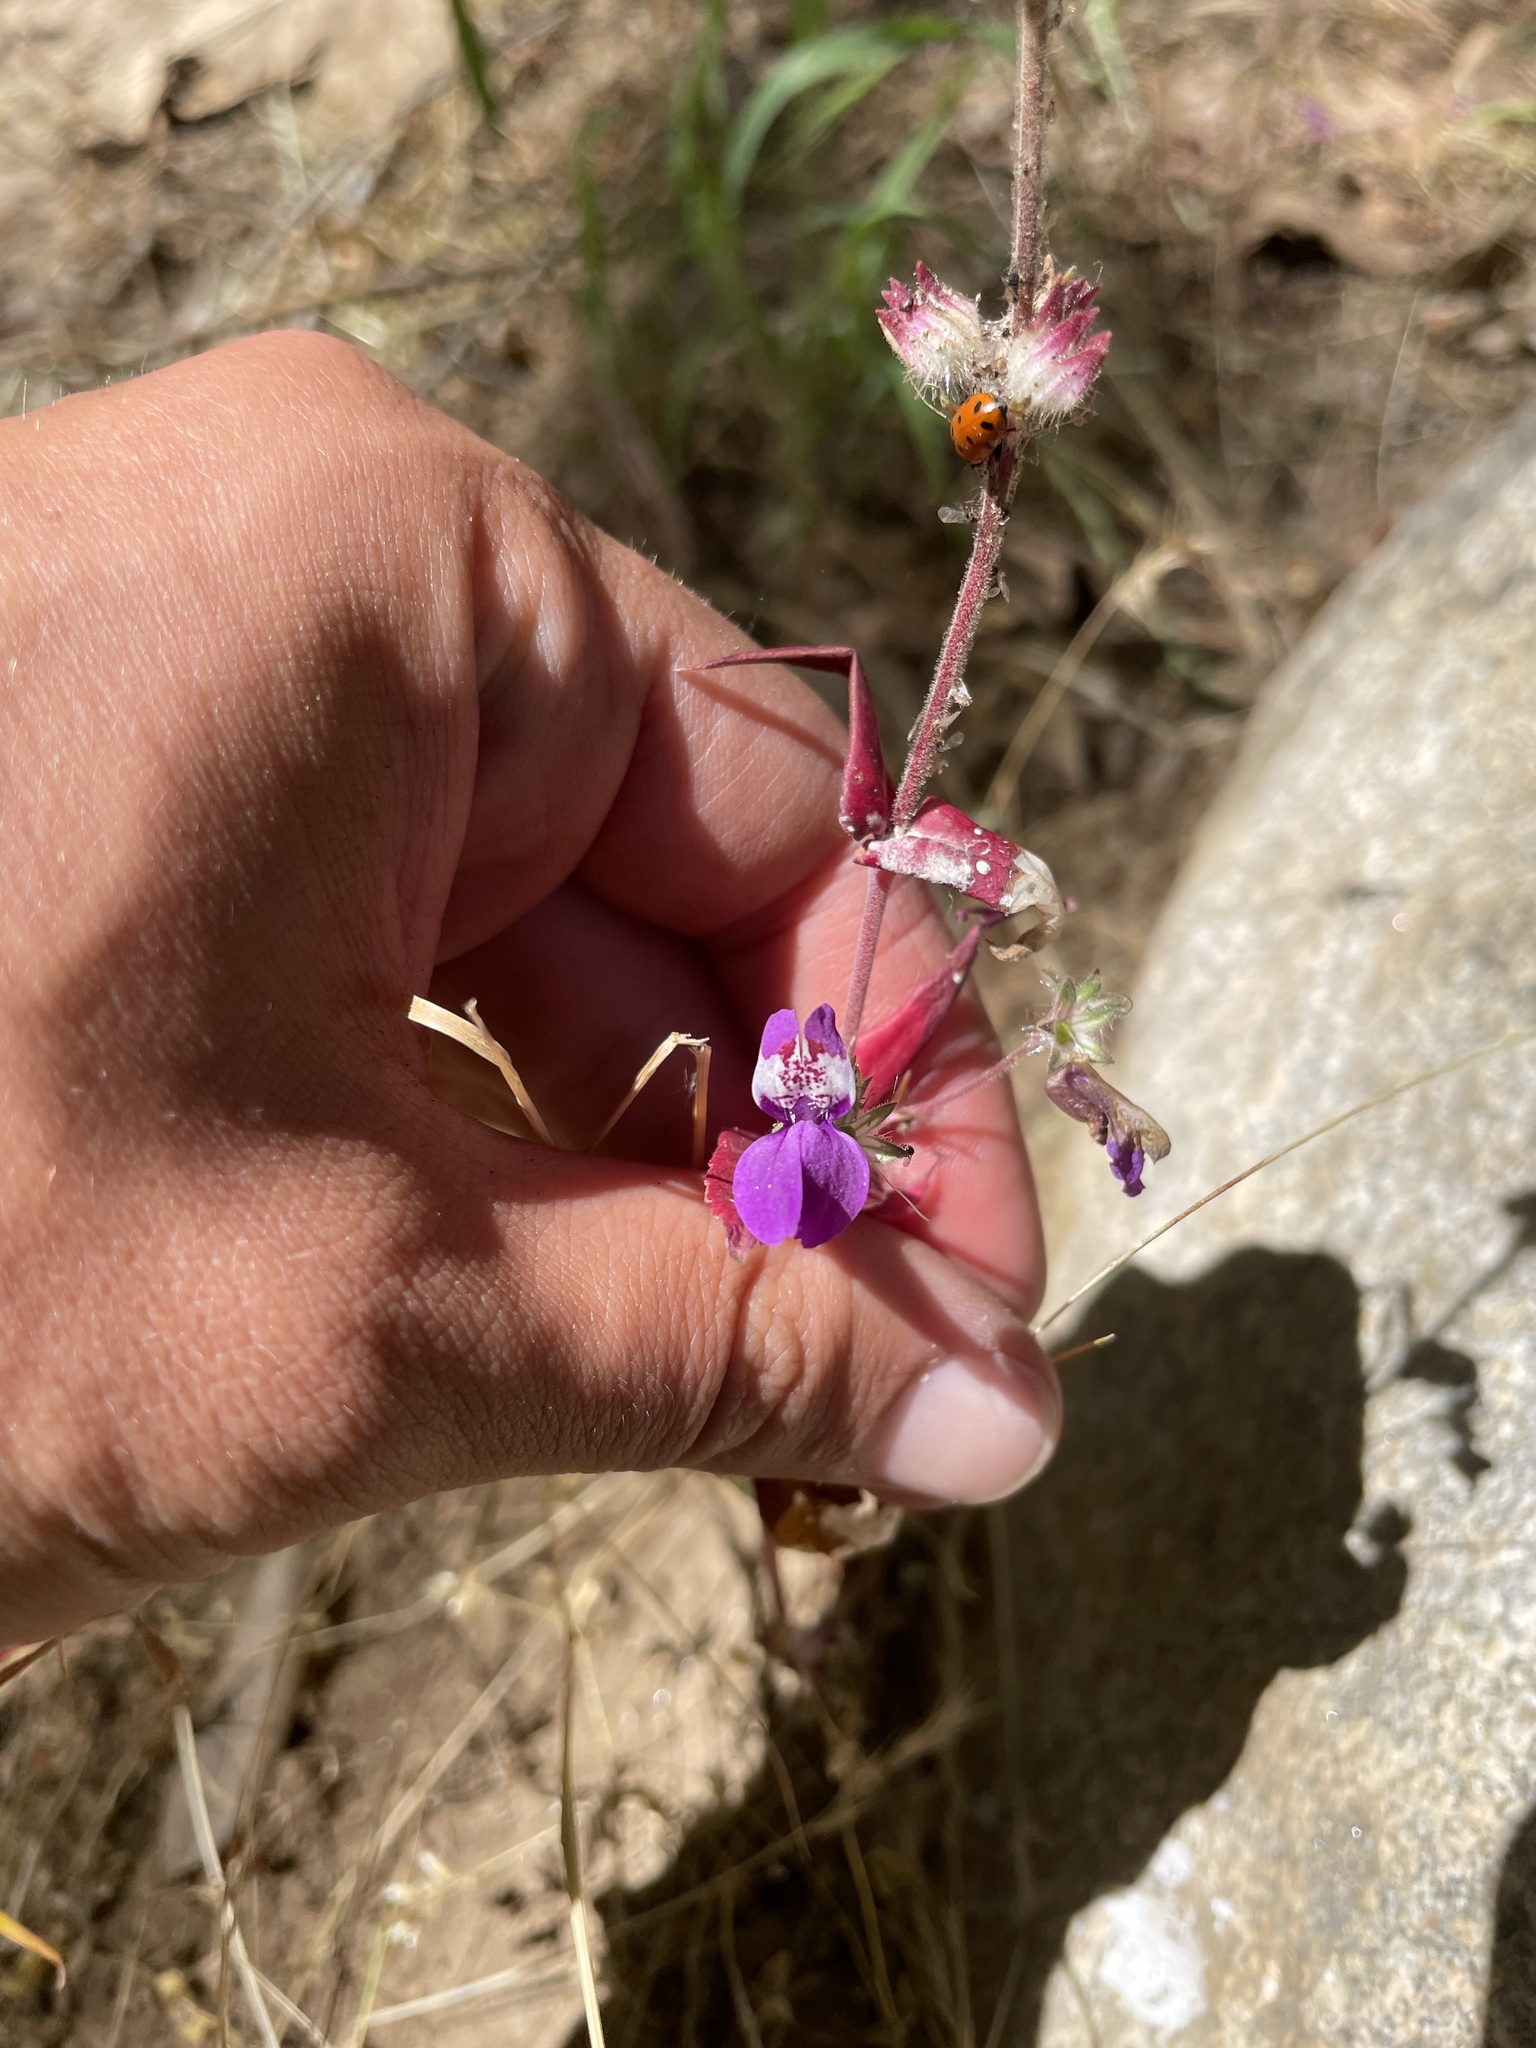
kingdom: Plantae
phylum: Tracheophyta
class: Magnoliopsida
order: Lamiales
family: Plantaginaceae
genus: Collinsia
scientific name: Collinsia heterophylla
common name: Chinese-houses
